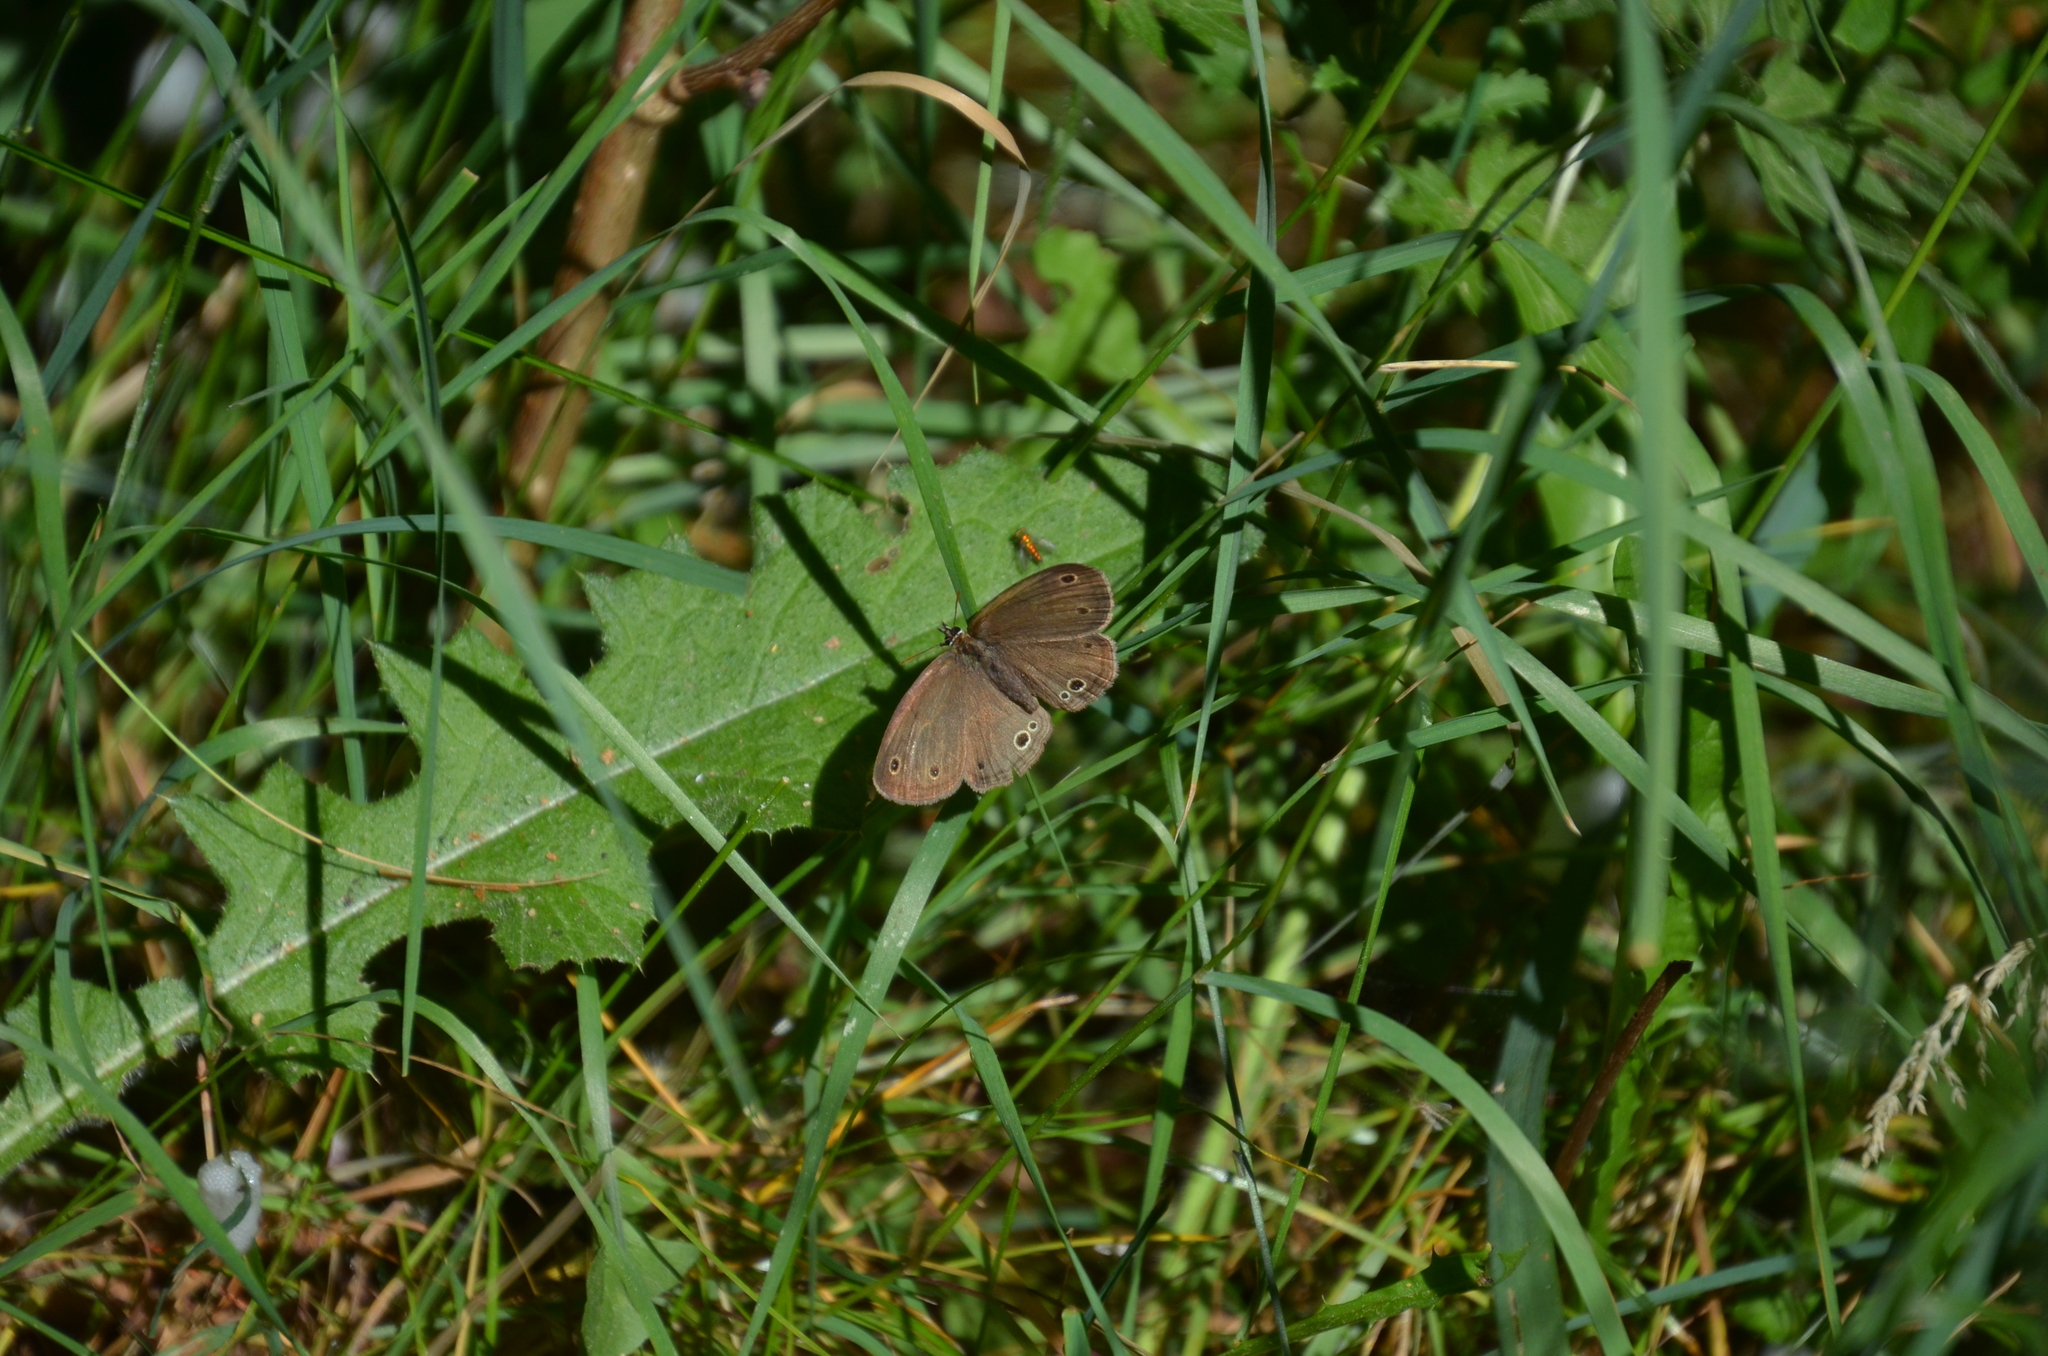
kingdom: Animalia
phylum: Arthropoda
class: Insecta
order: Lepidoptera
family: Nymphalidae
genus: Euptychia
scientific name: Euptychia cymela
